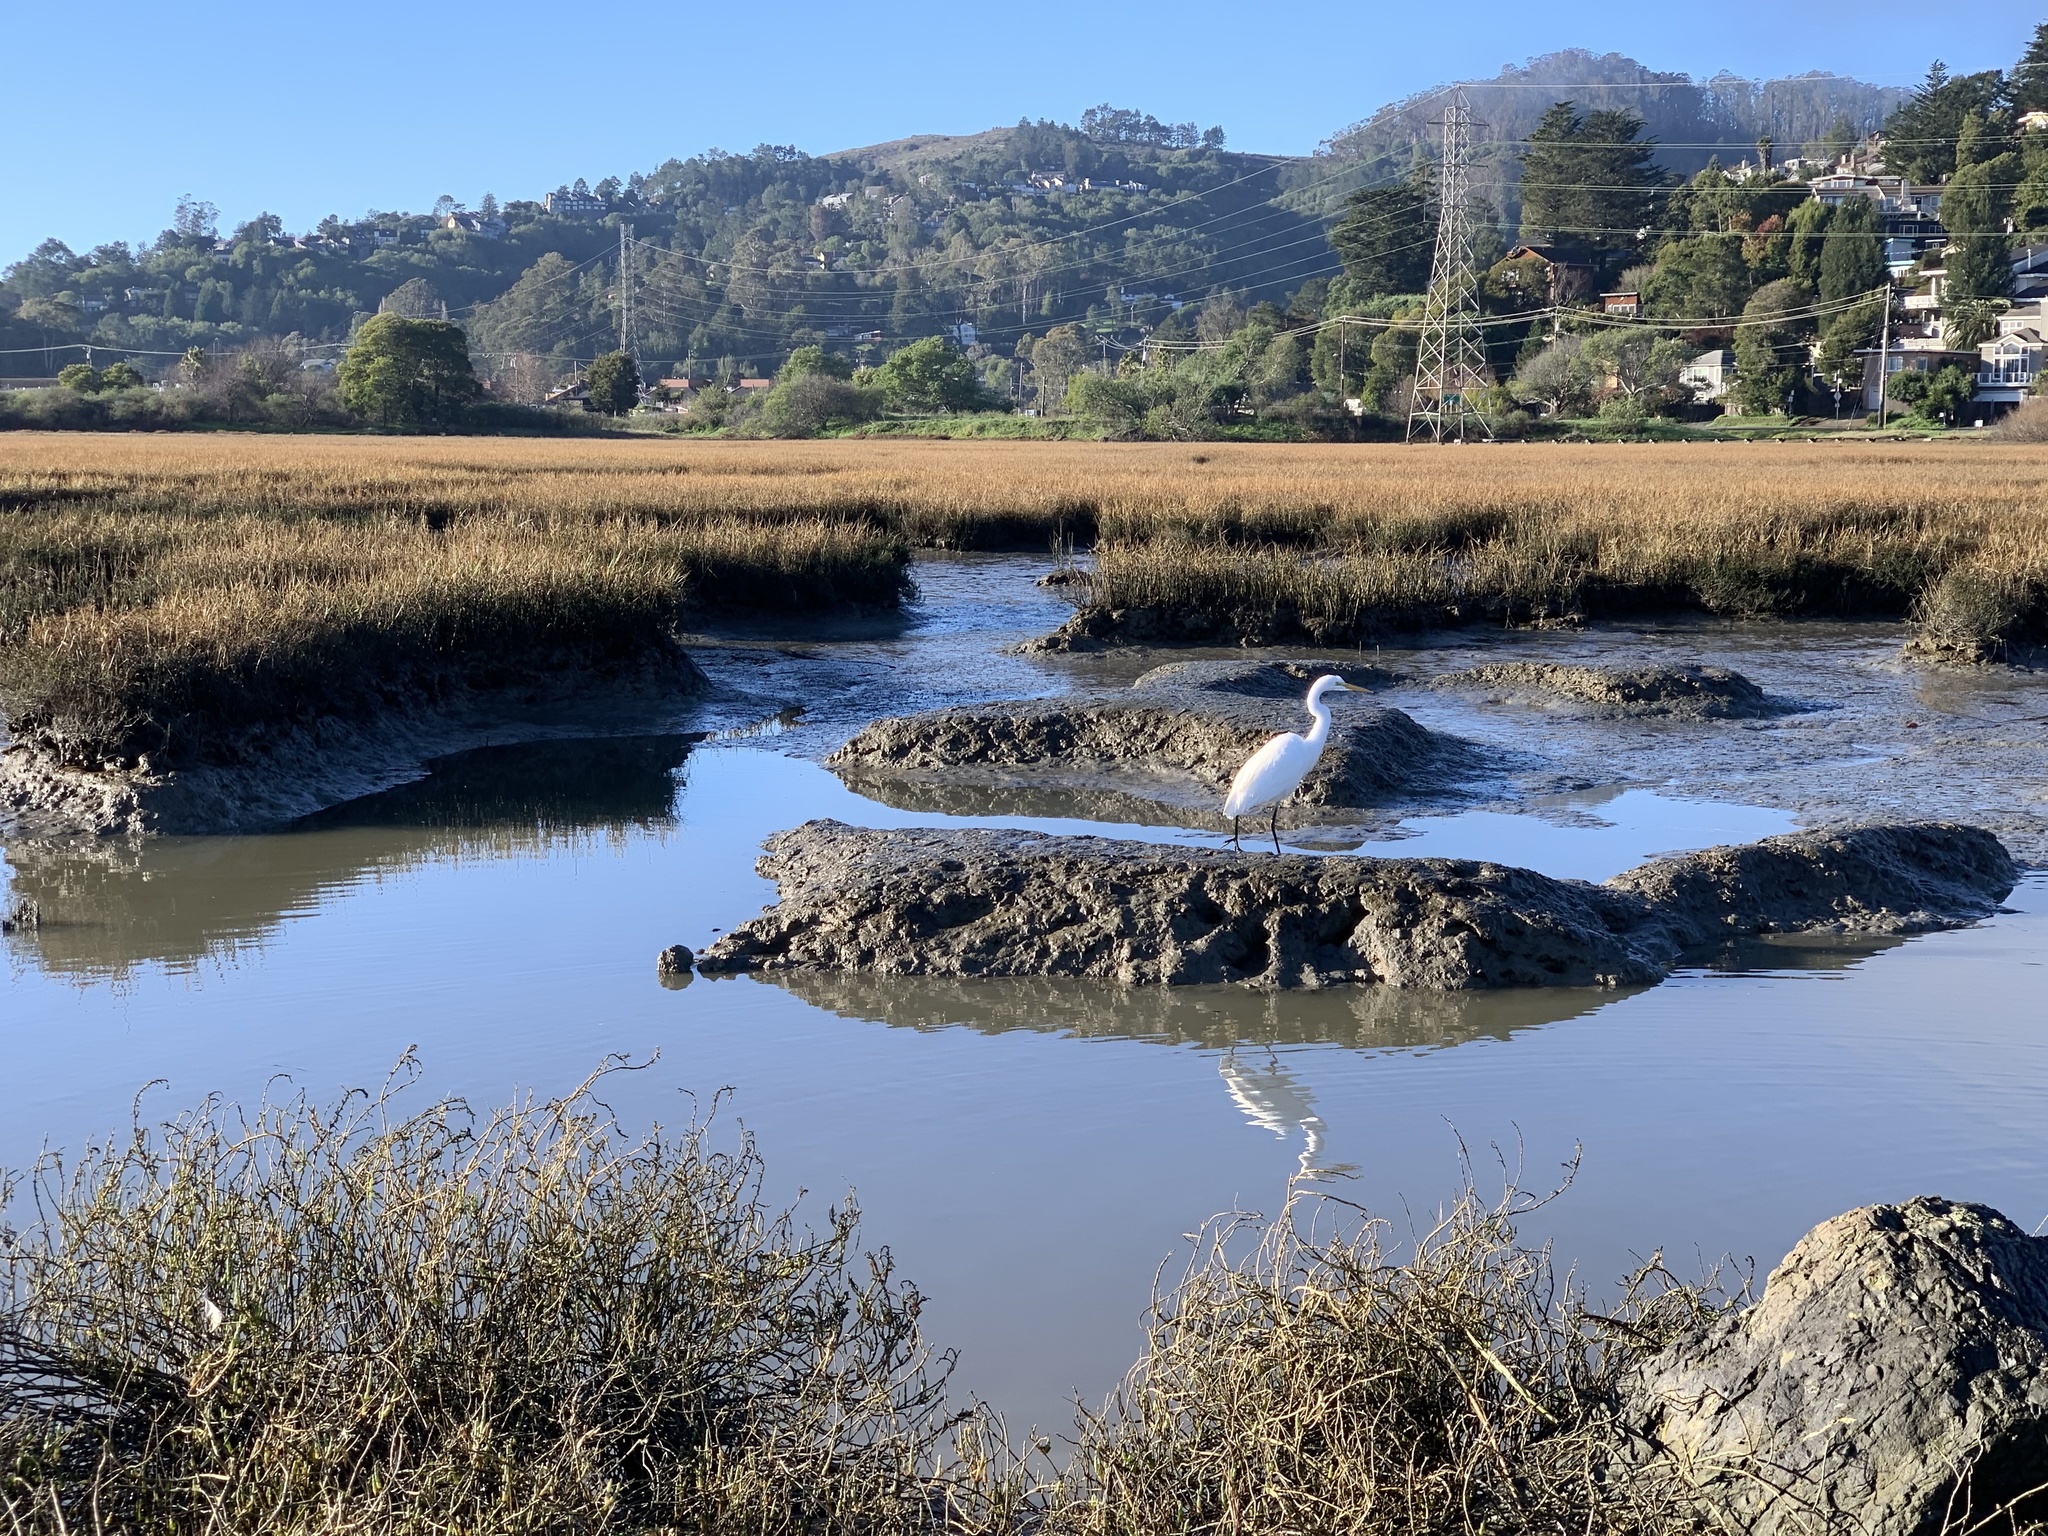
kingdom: Animalia
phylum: Chordata
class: Aves
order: Pelecaniformes
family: Ardeidae
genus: Ardea
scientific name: Ardea alba
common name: Great egret
